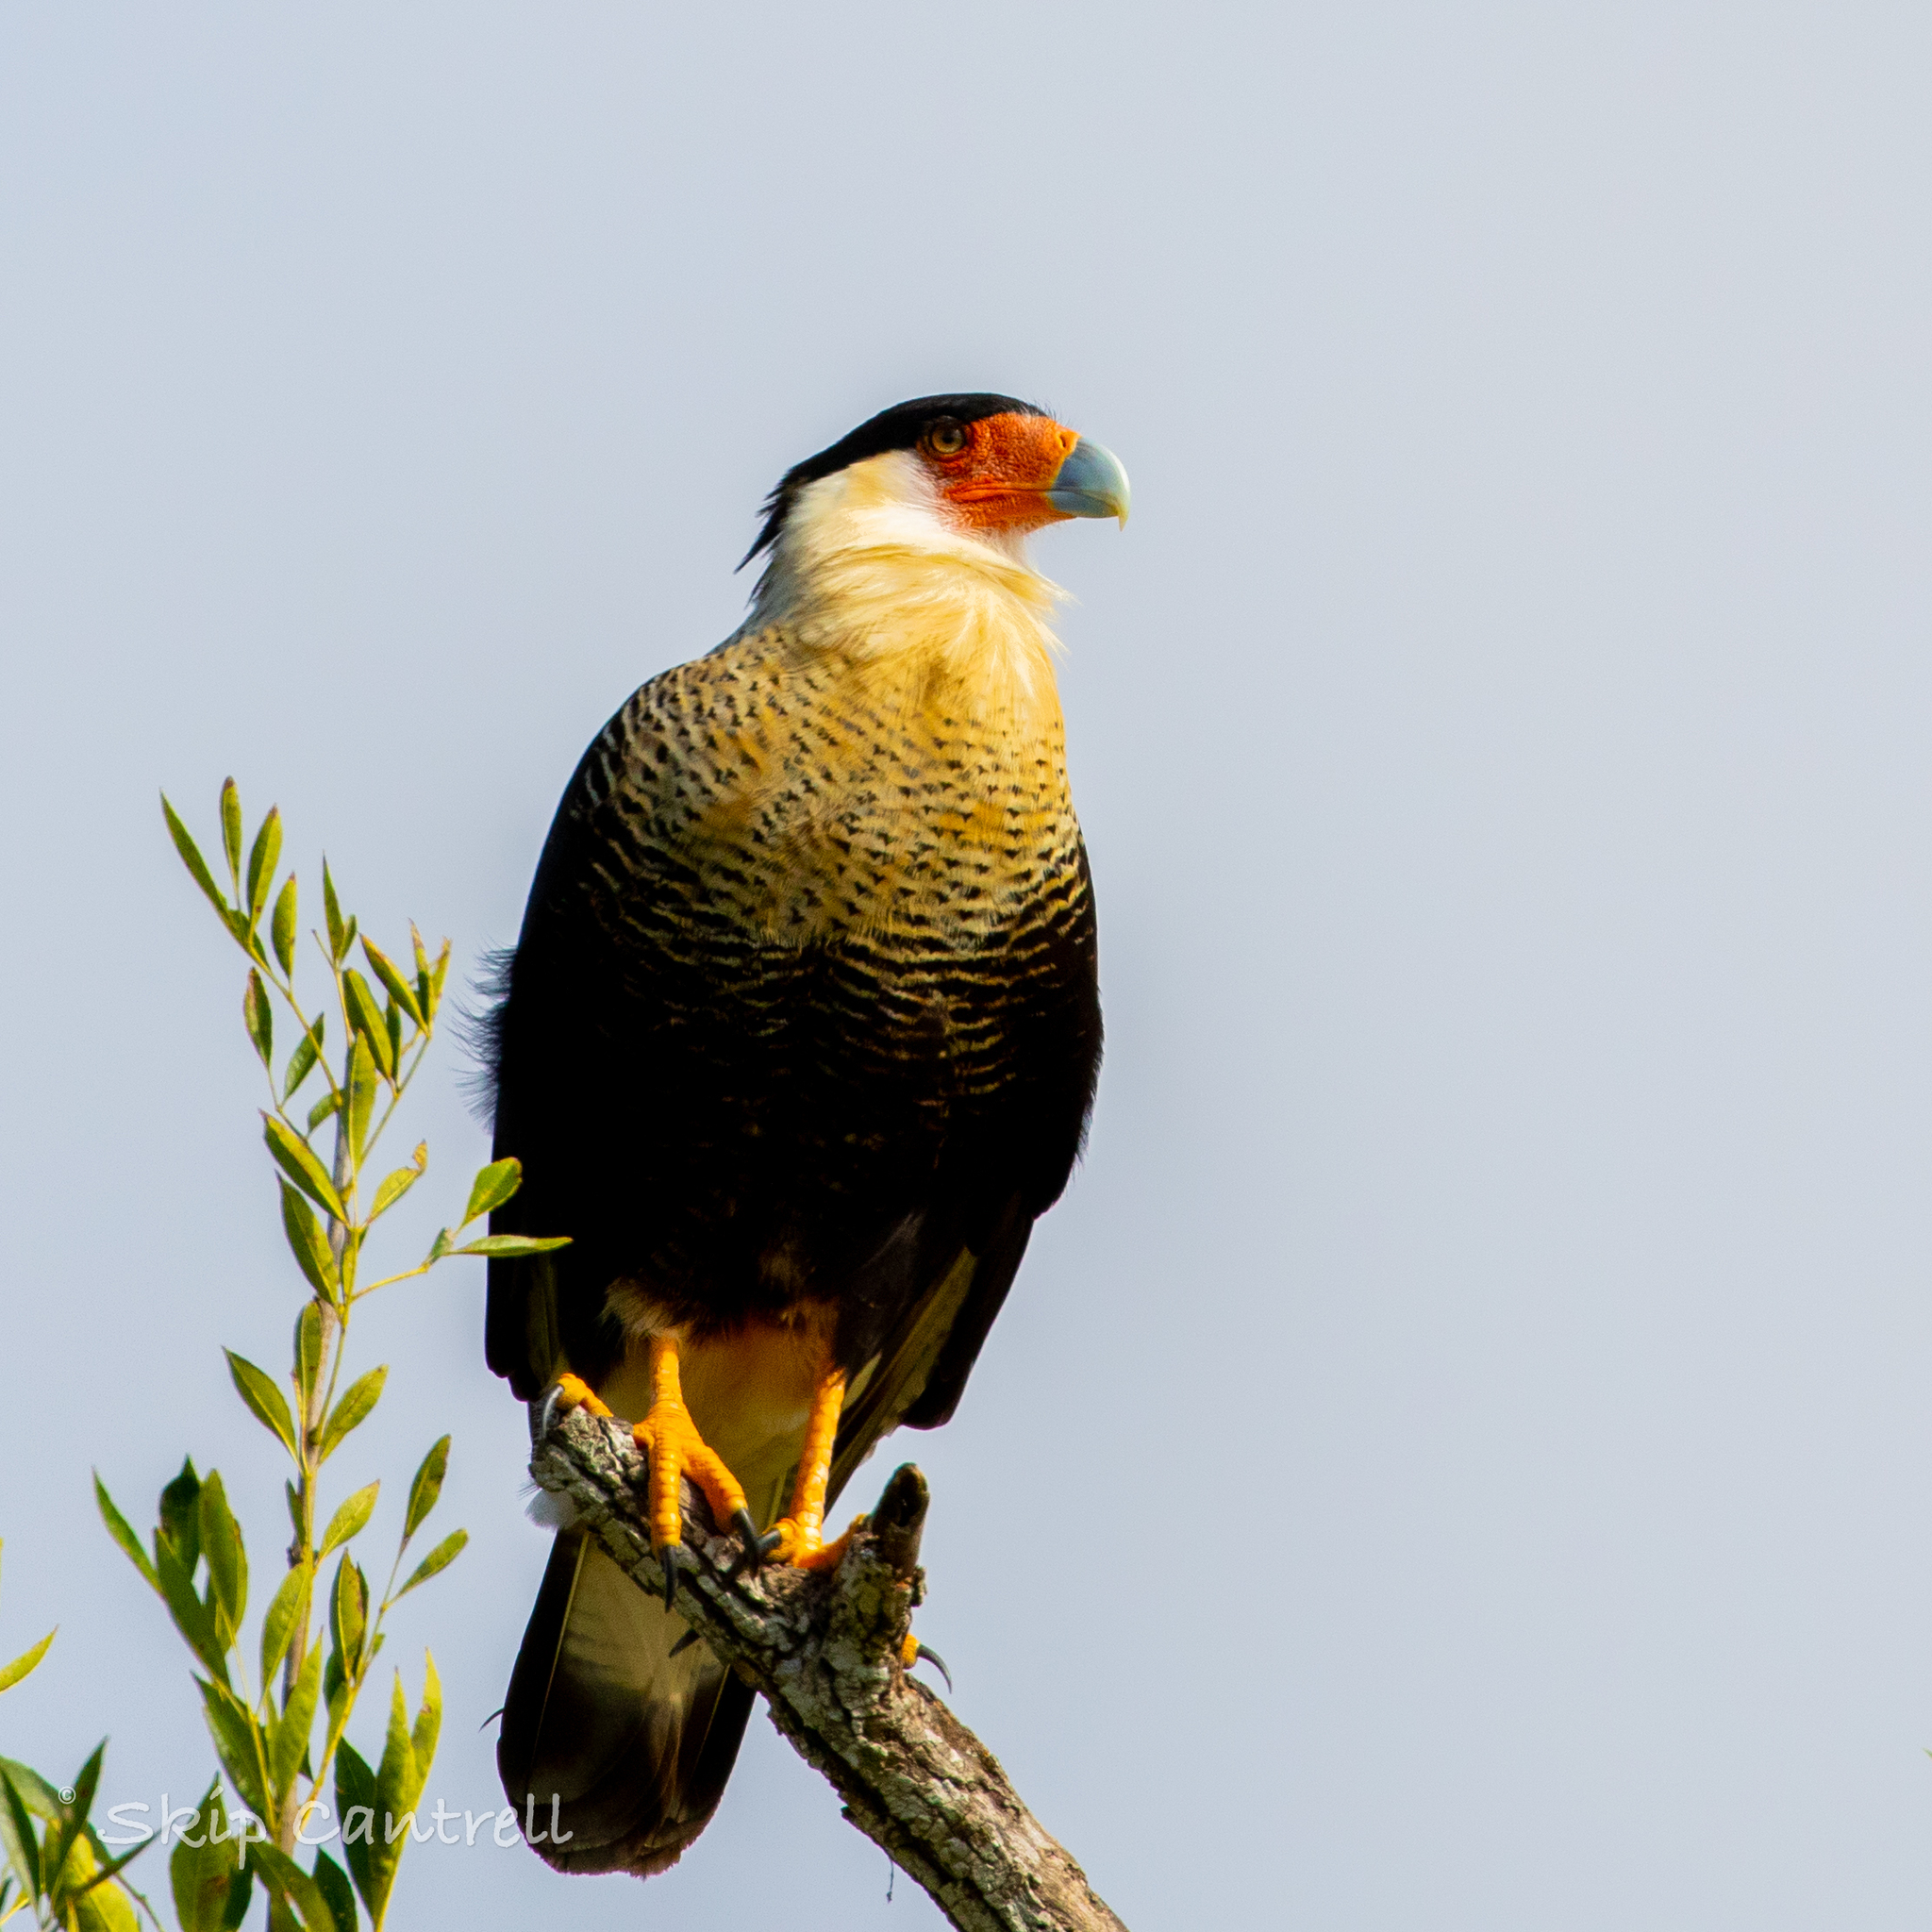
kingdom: Animalia
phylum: Chordata
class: Aves
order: Falconiformes
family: Falconidae
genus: Caracara
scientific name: Caracara plancus
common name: Southern caracara
